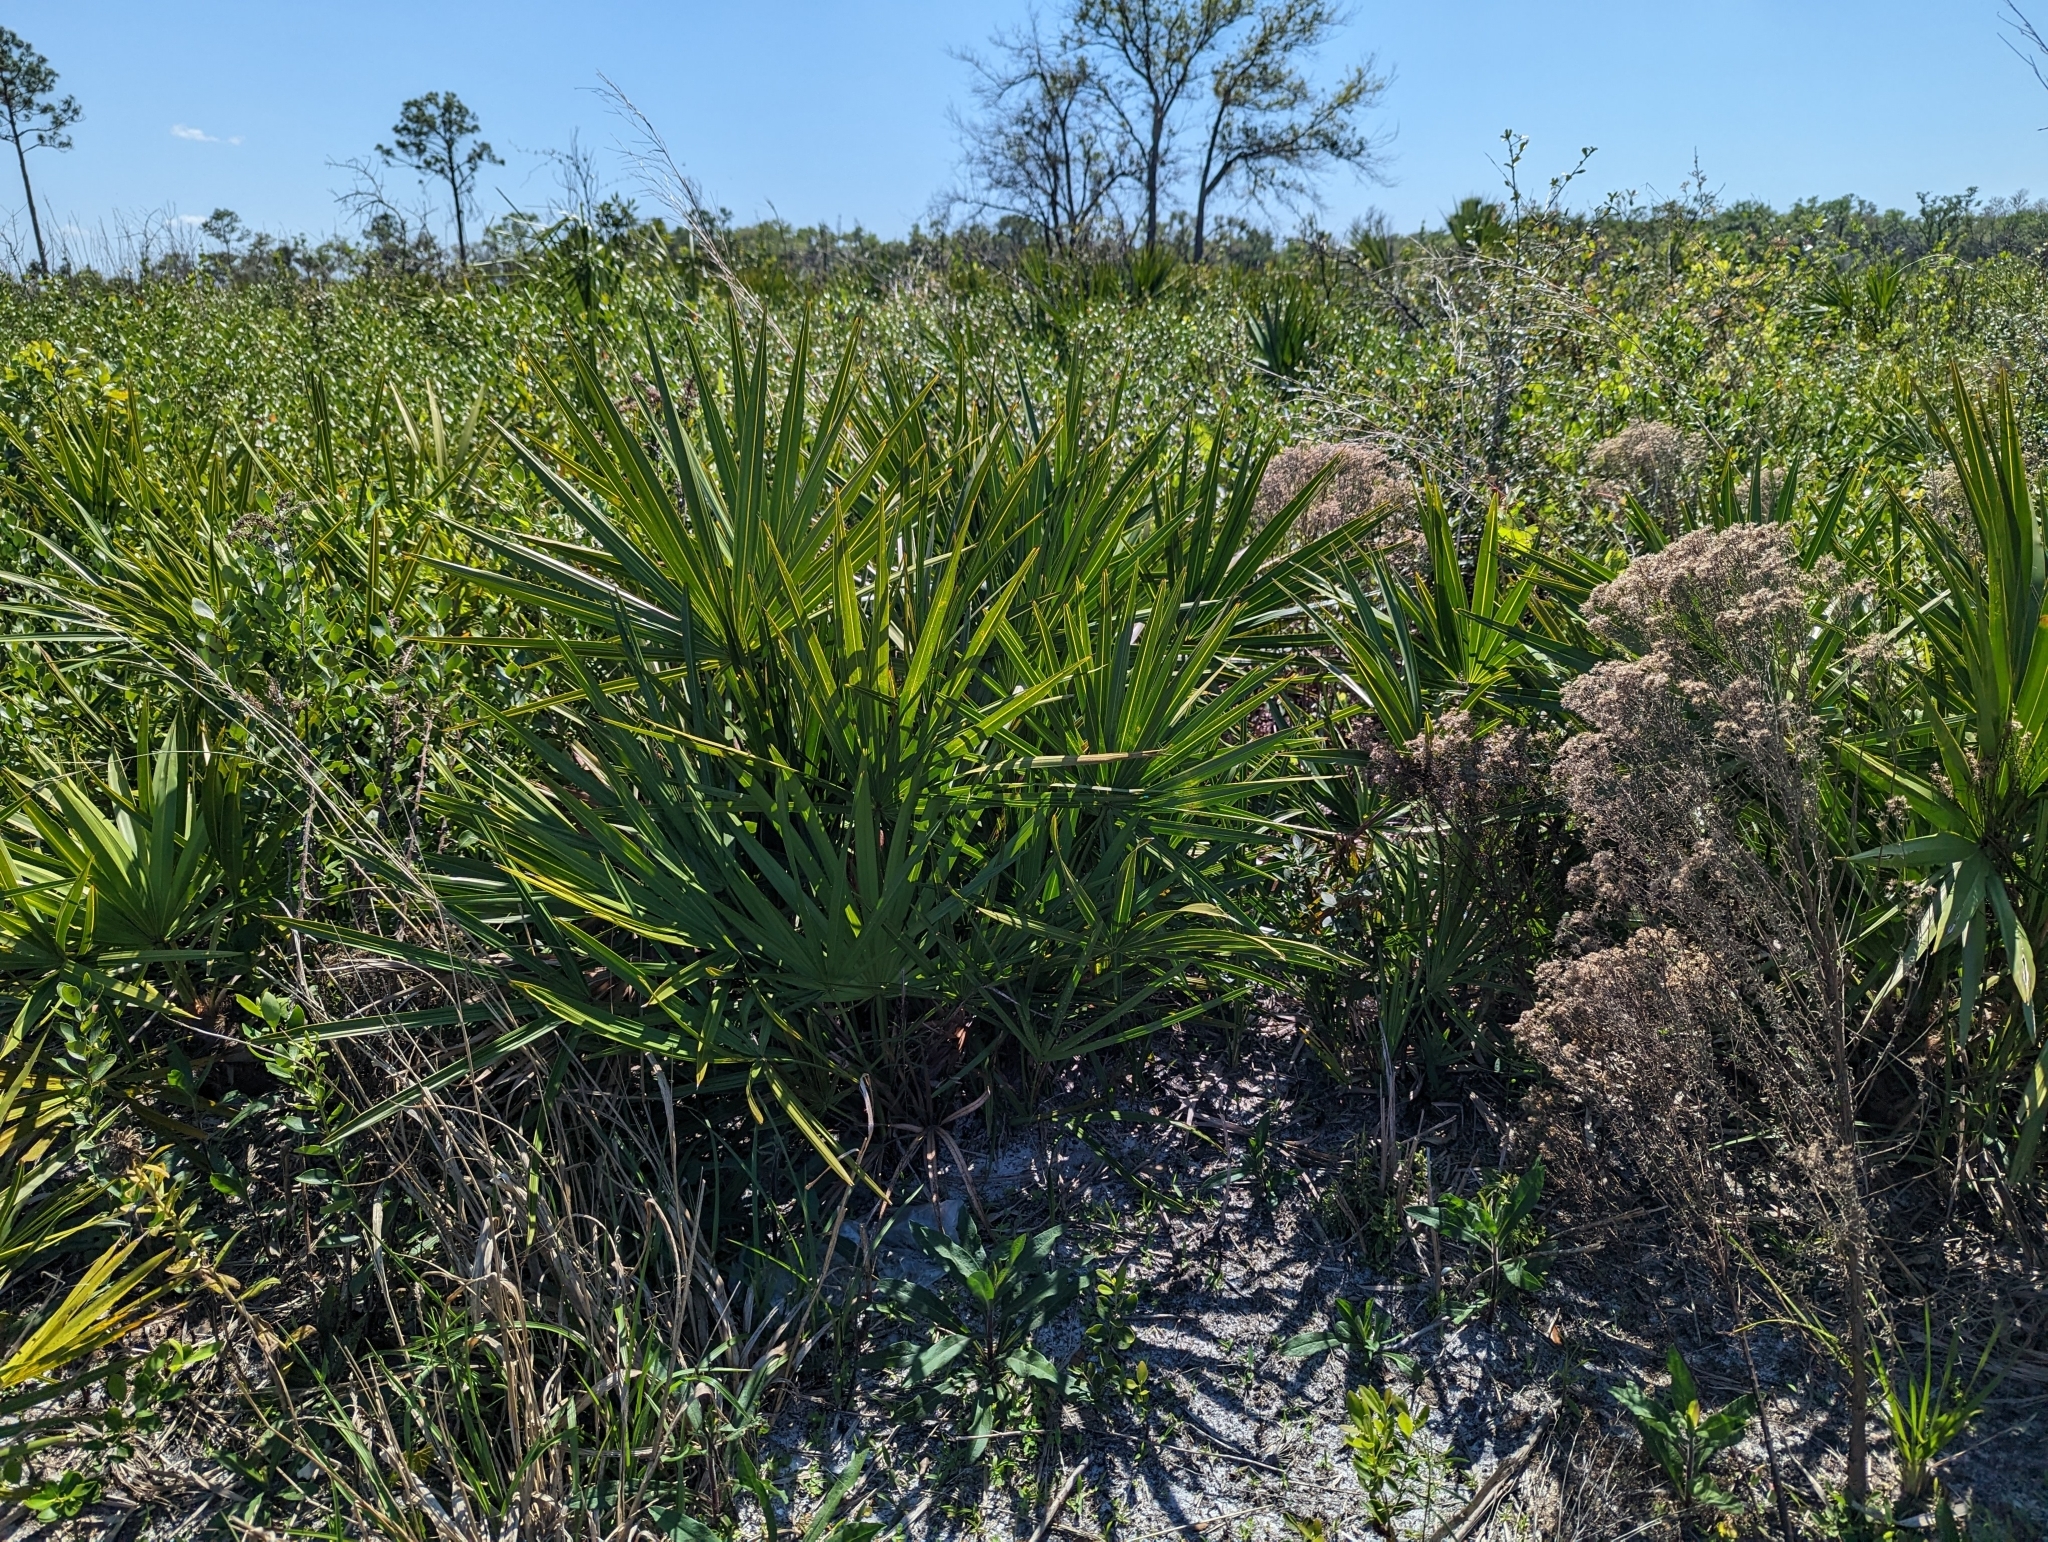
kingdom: Plantae
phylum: Tracheophyta
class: Liliopsida
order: Arecales
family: Arecaceae
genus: Serenoa
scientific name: Serenoa repens
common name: Saw-palmetto
